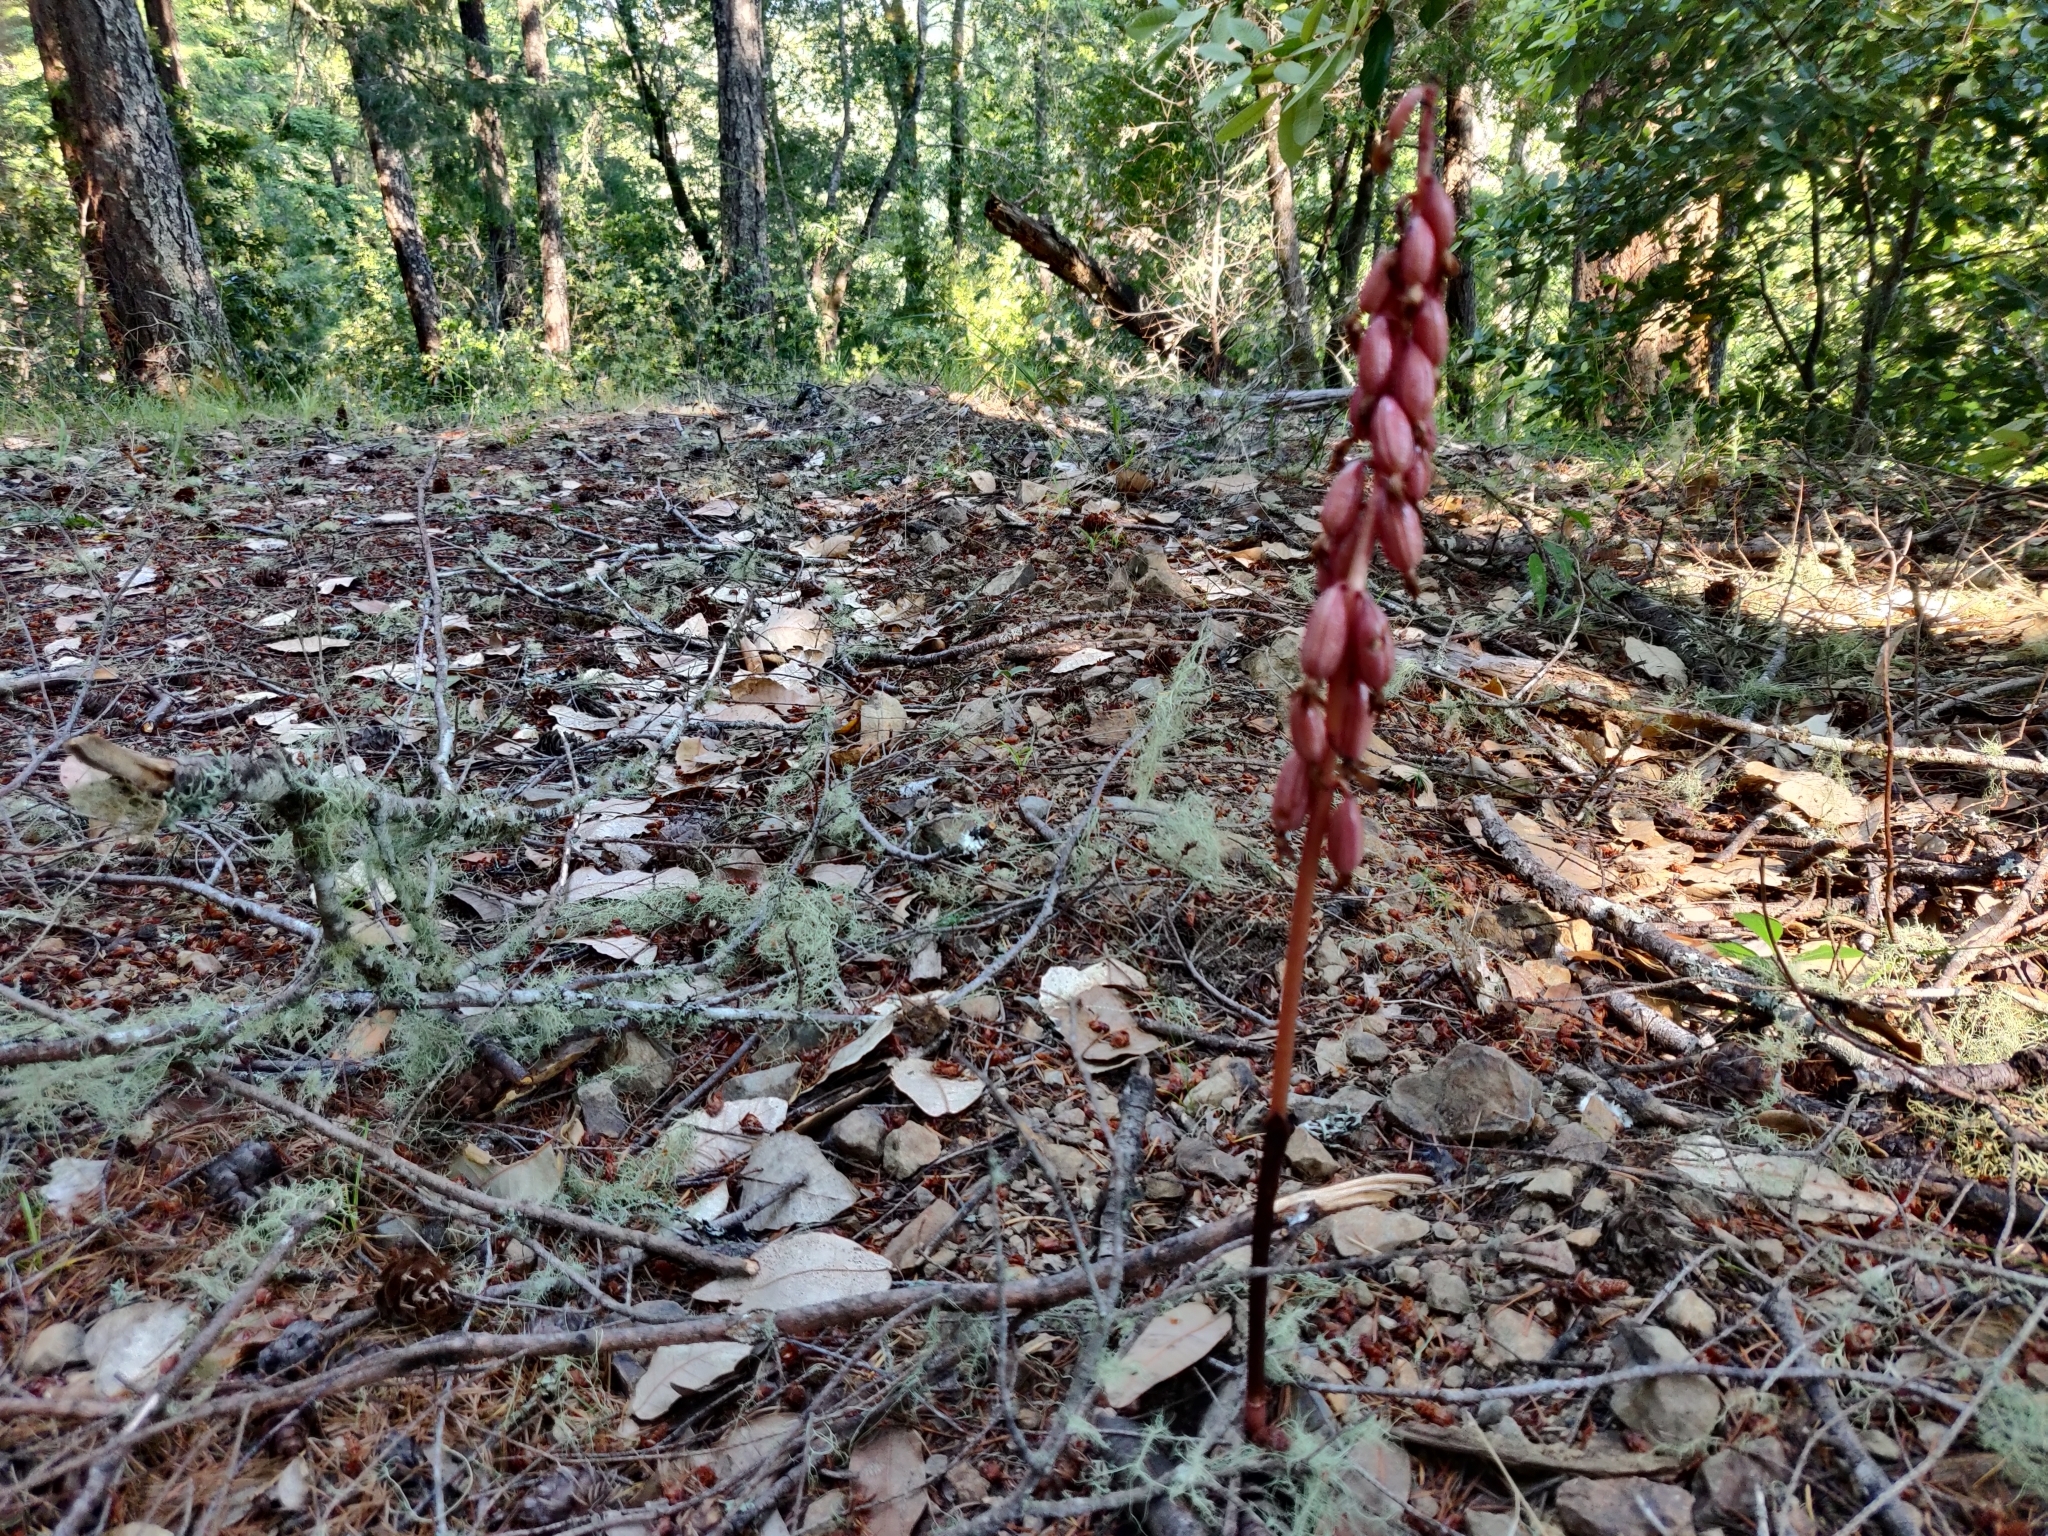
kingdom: Plantae
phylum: Tracheophyta
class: Liliopsida
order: Asparagales
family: Orchidaceae
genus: Corallorhiza
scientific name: Corallorhiza maculata
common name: Spotted coralroot
